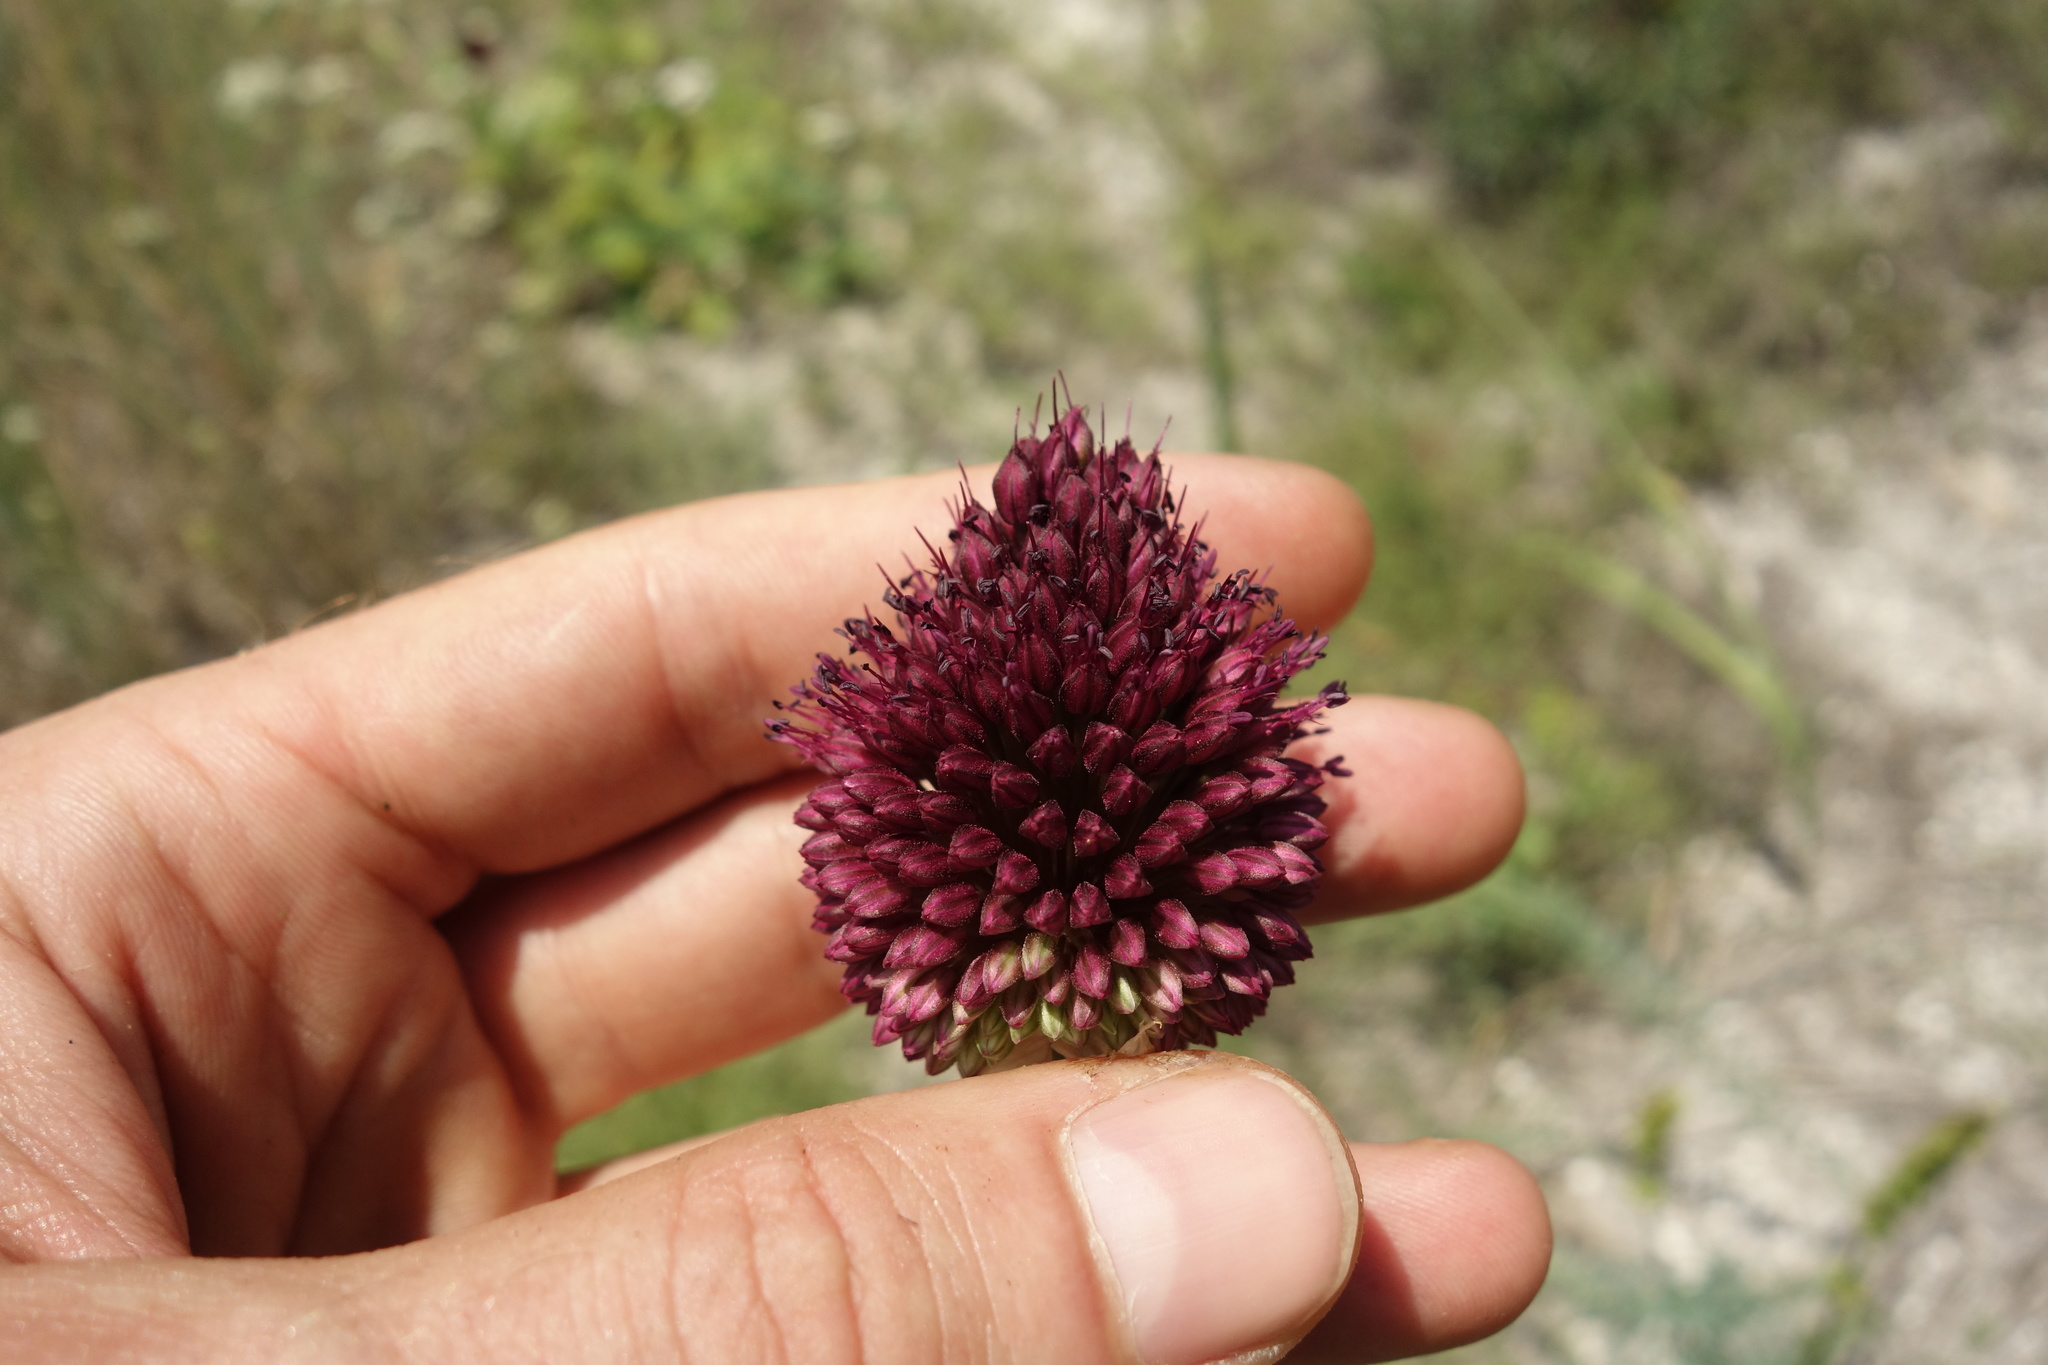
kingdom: Plantae
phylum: Tracheophyta
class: Liliopsida
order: Asparagales
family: Amaryllidaceae
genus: Allium
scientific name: Allium sphaerocephalon
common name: Round-headed leek
